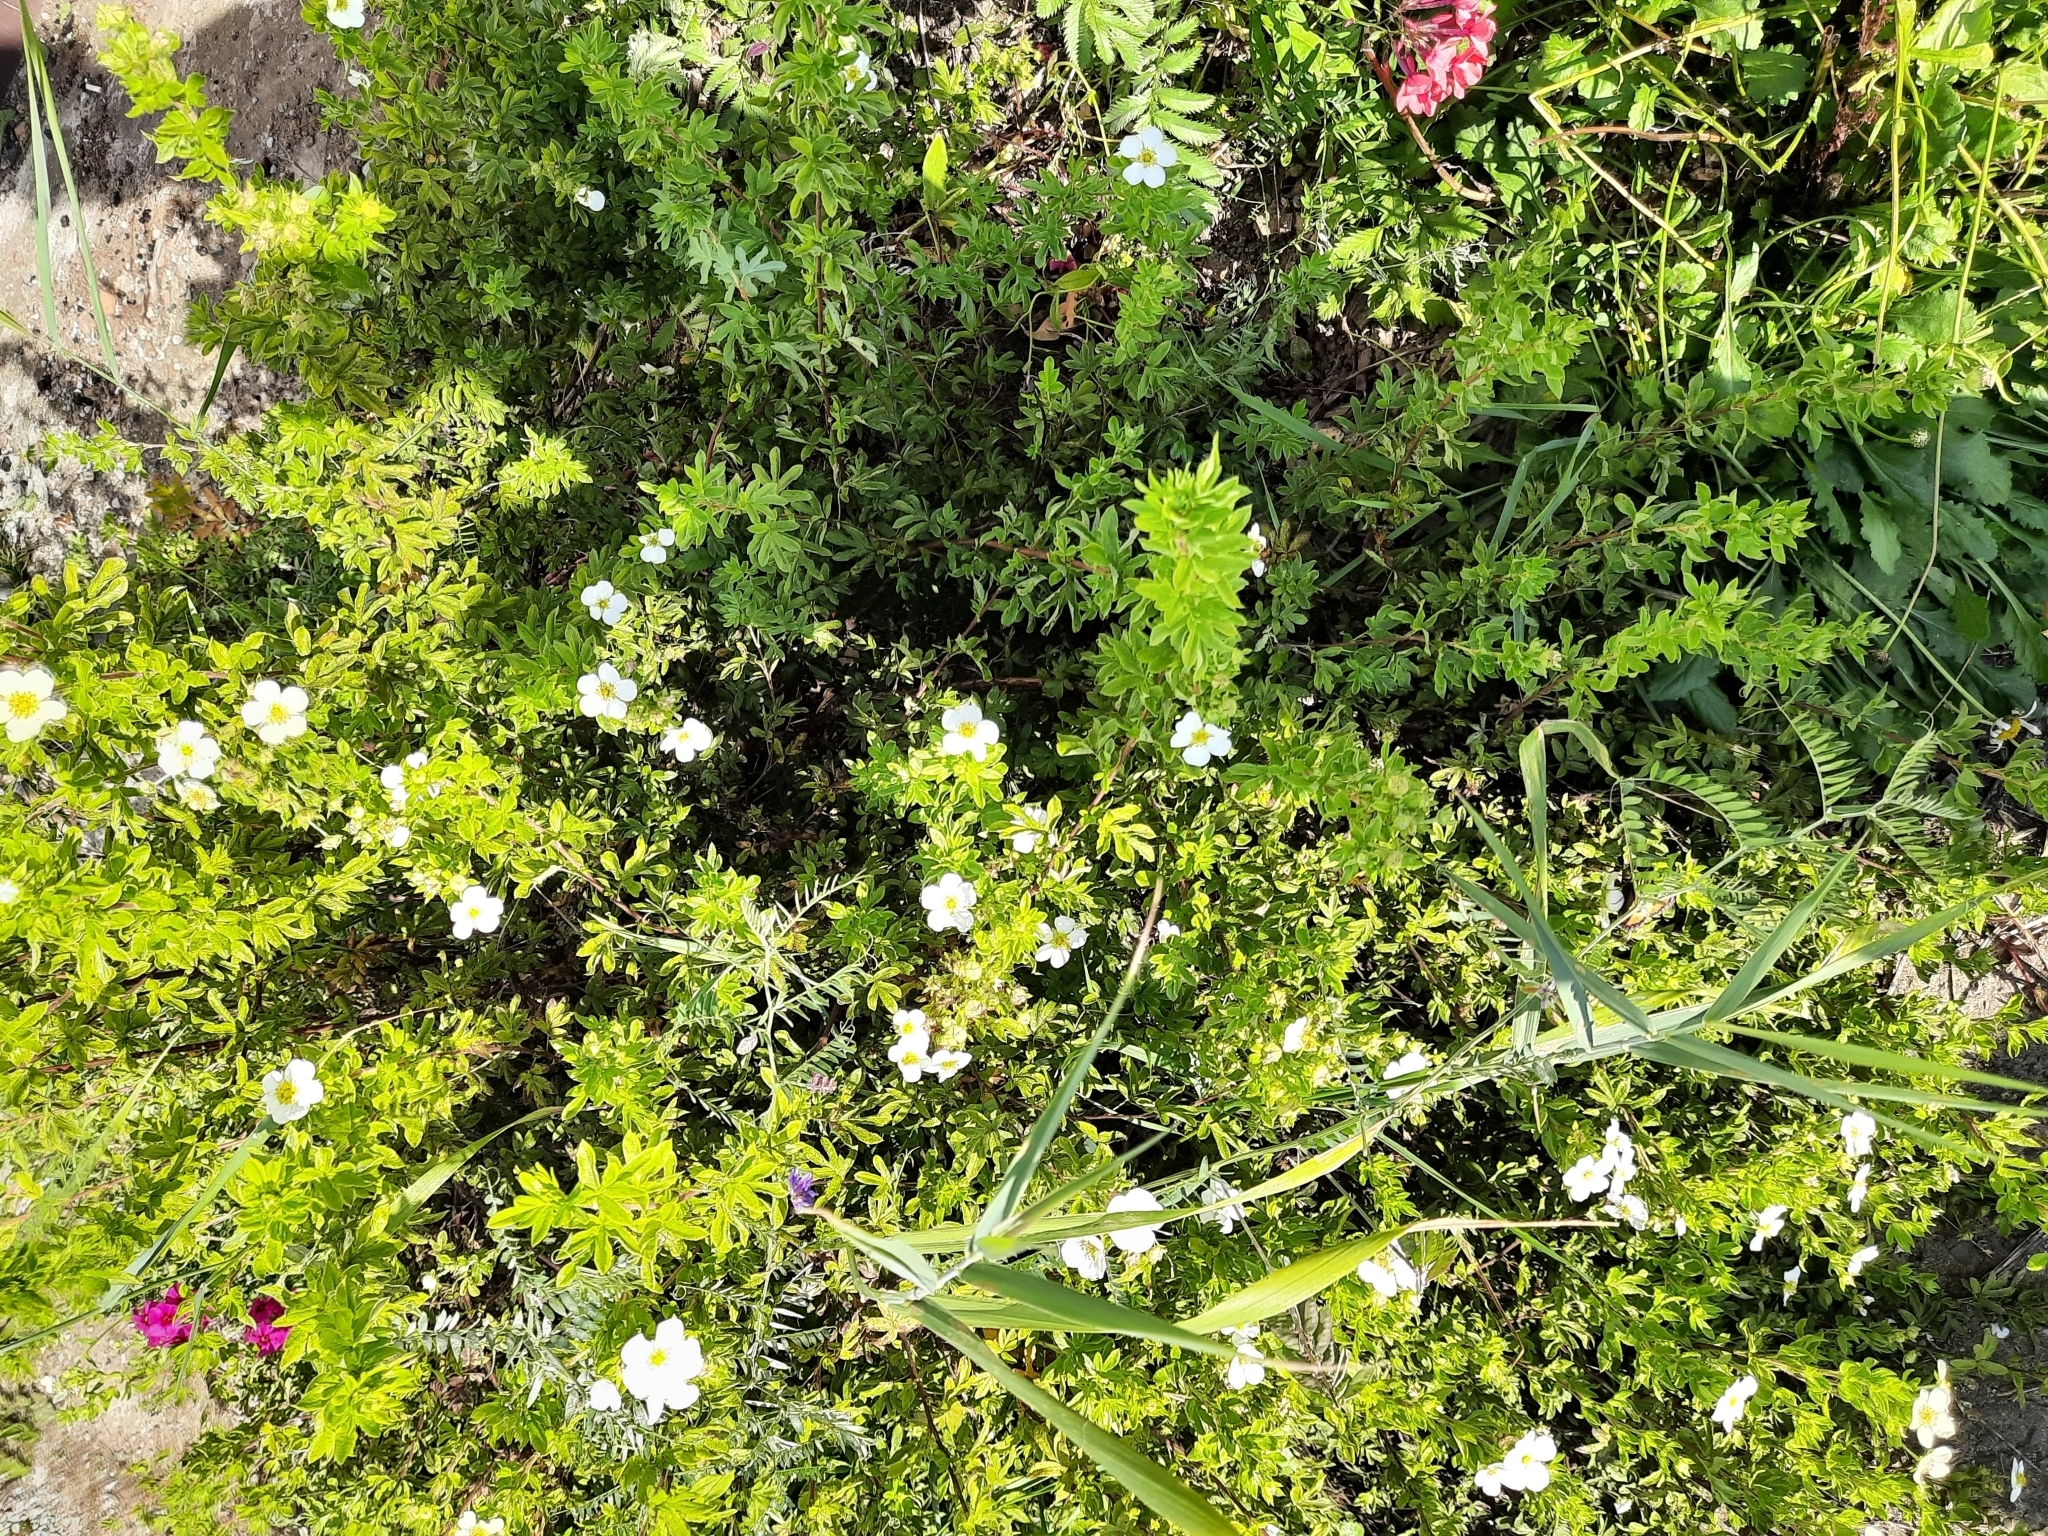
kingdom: Plantae
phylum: Tracheophyta
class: Magnoliopsida
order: Fabales
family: Fabaceae
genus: Vicia
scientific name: Vicia cracca
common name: Bird vetch
